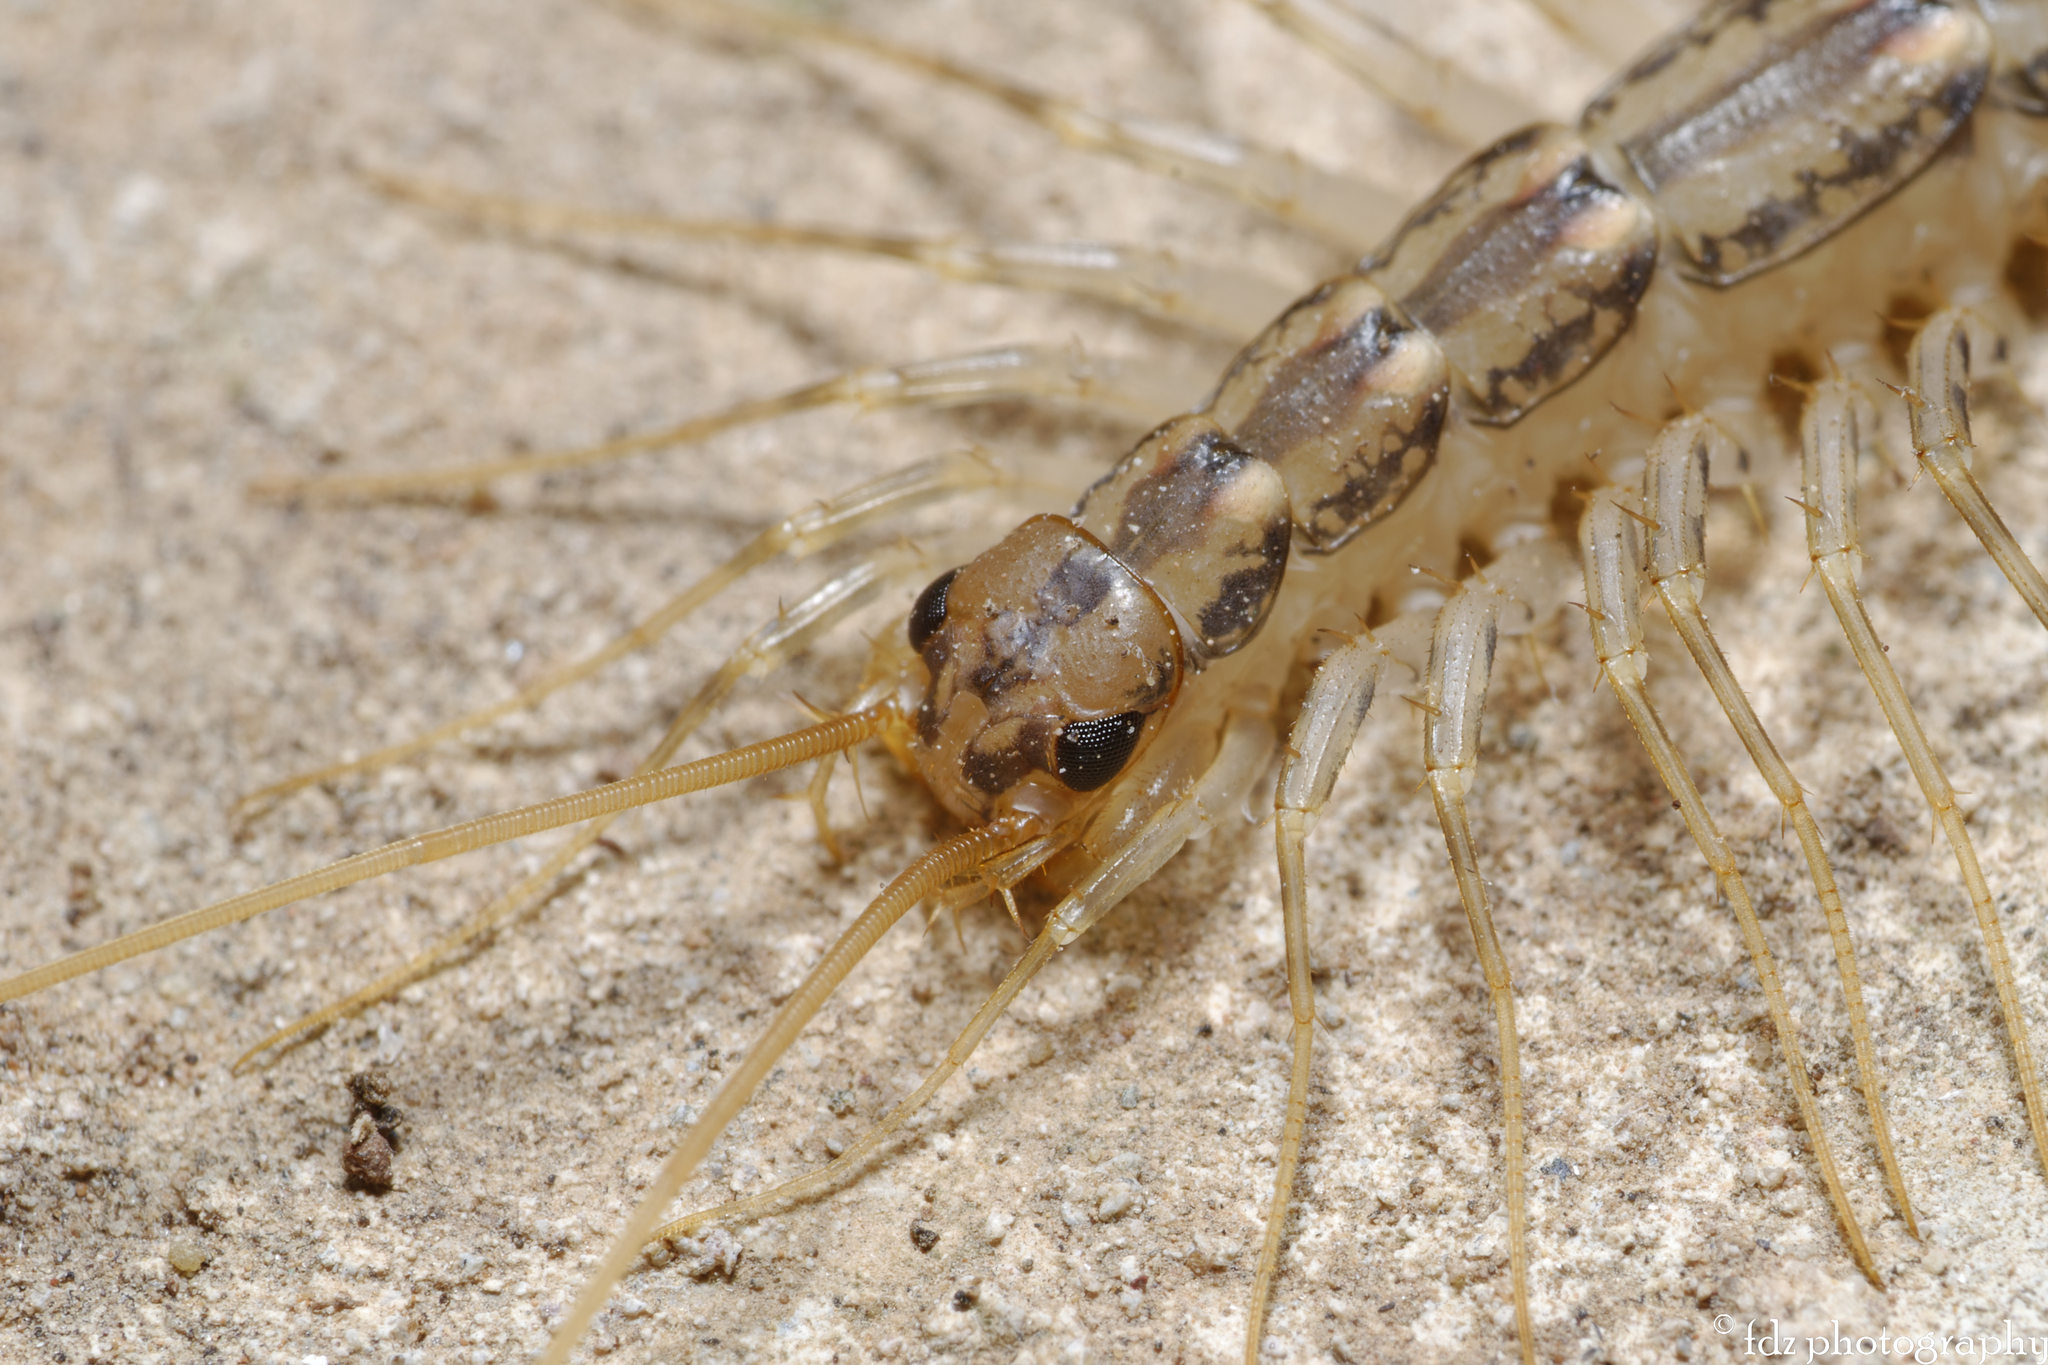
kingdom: Animalia
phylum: Arthropoda
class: Chilopoda
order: Scutigeromorpha
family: Scutigeridae
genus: Scutigera
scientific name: Scutigera coleoptrata
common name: House centipede
